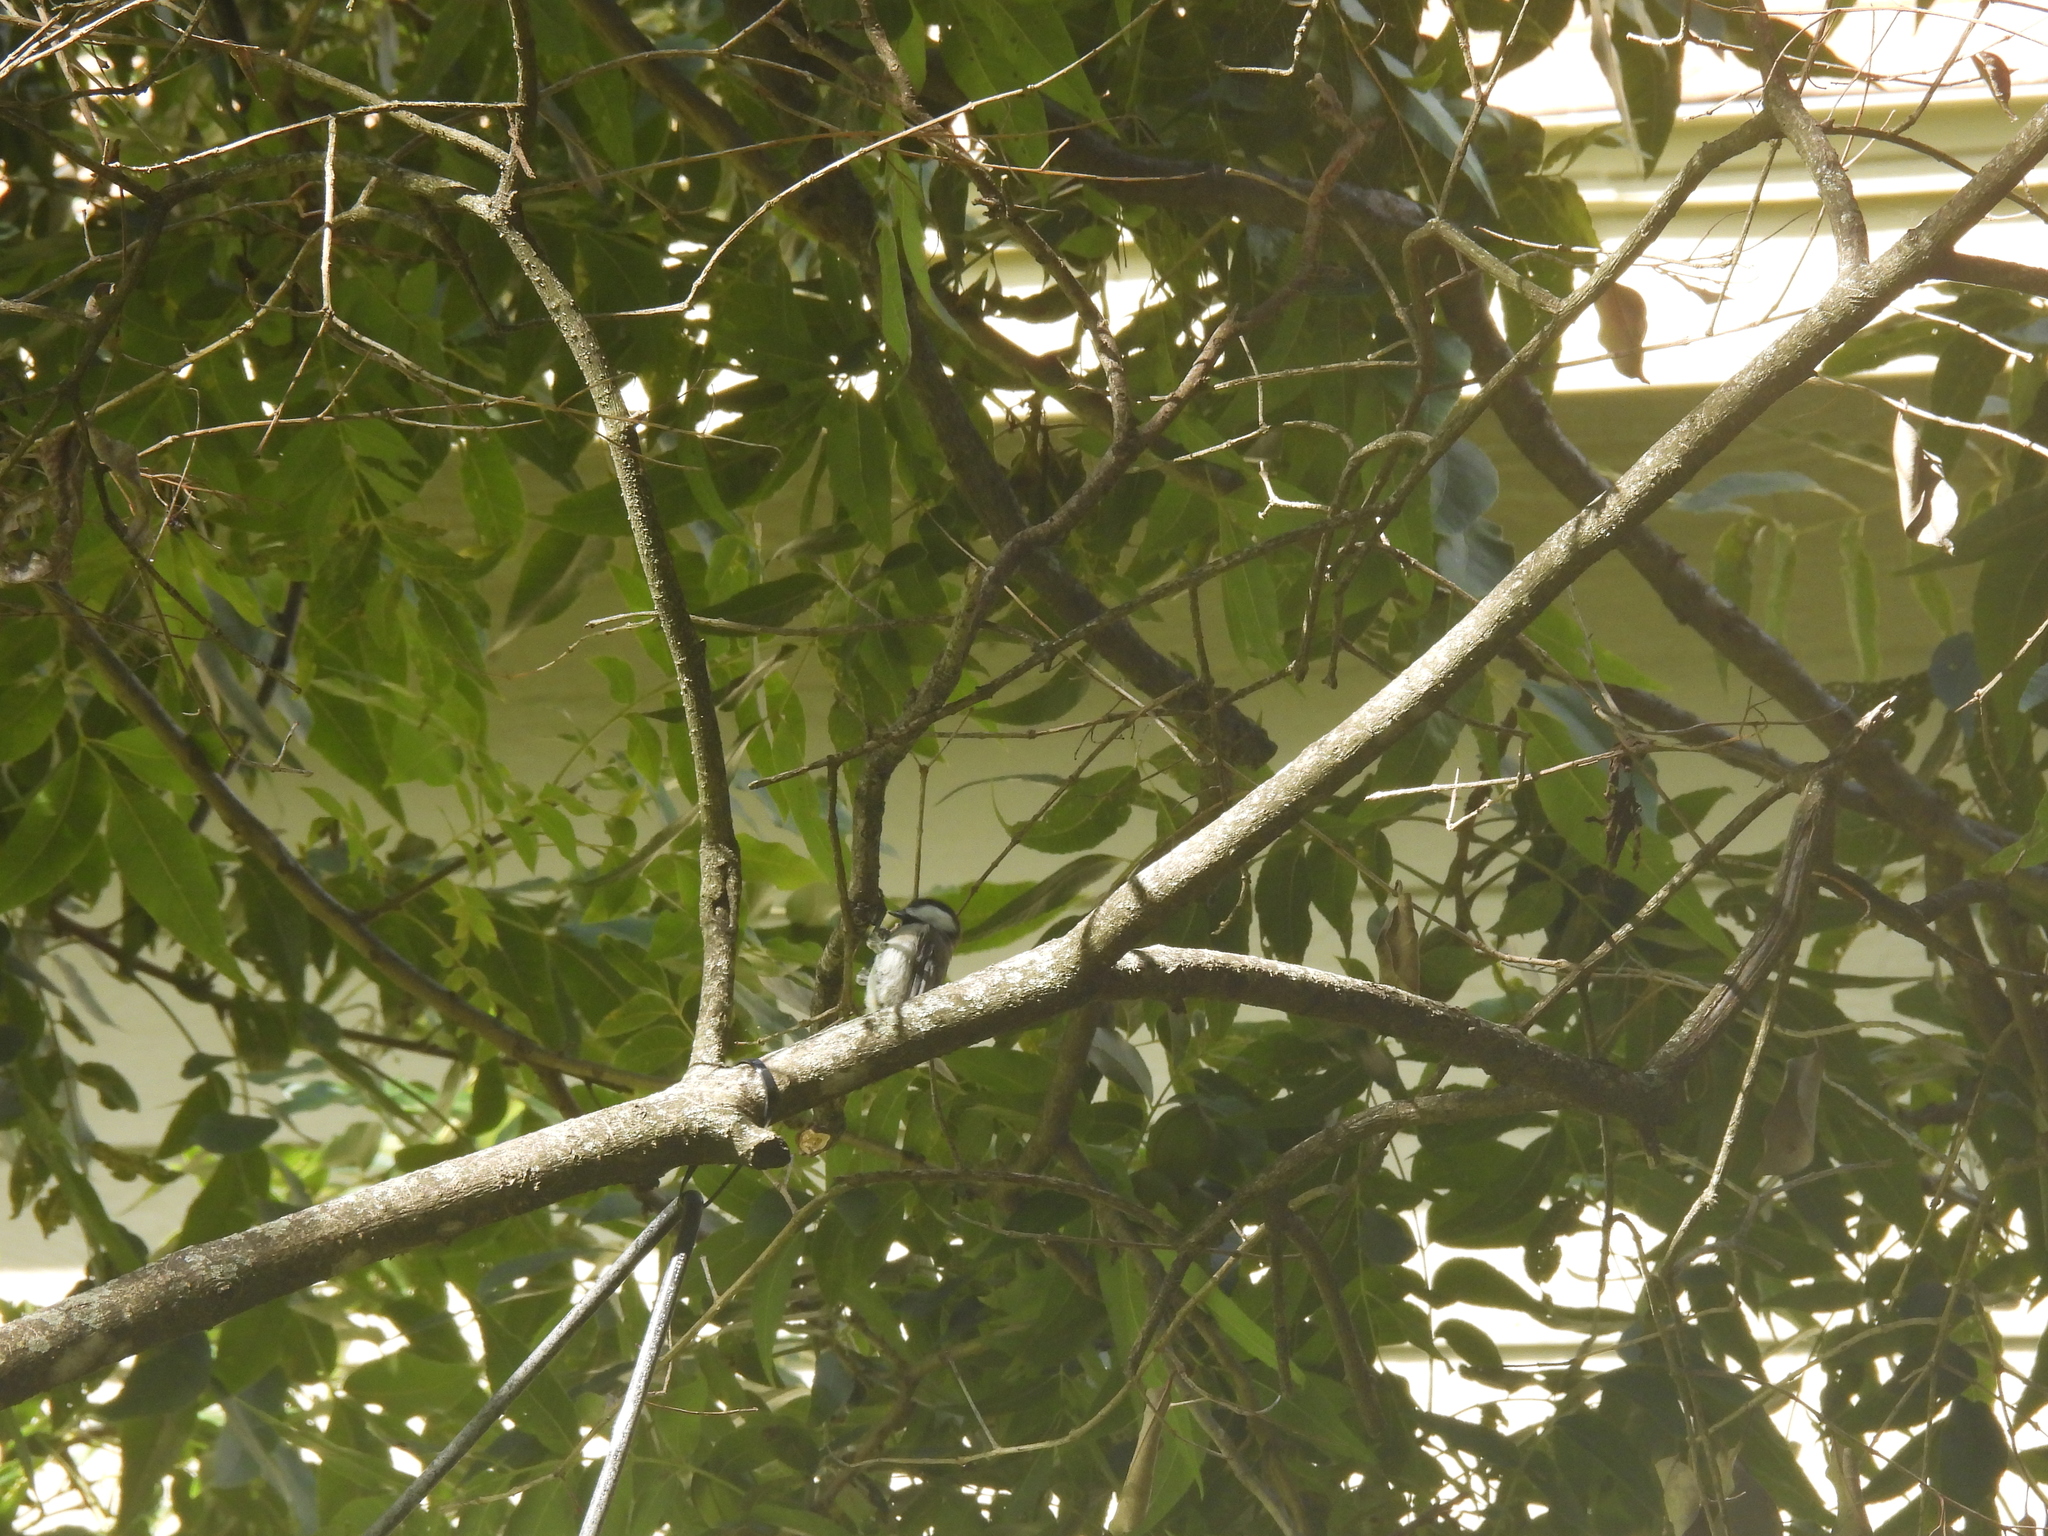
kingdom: Animalia
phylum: Chordata
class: Aves
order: Passeriformes
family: Paridae
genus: Poecile
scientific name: Poecile carolinensis
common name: Carolina chickadee
